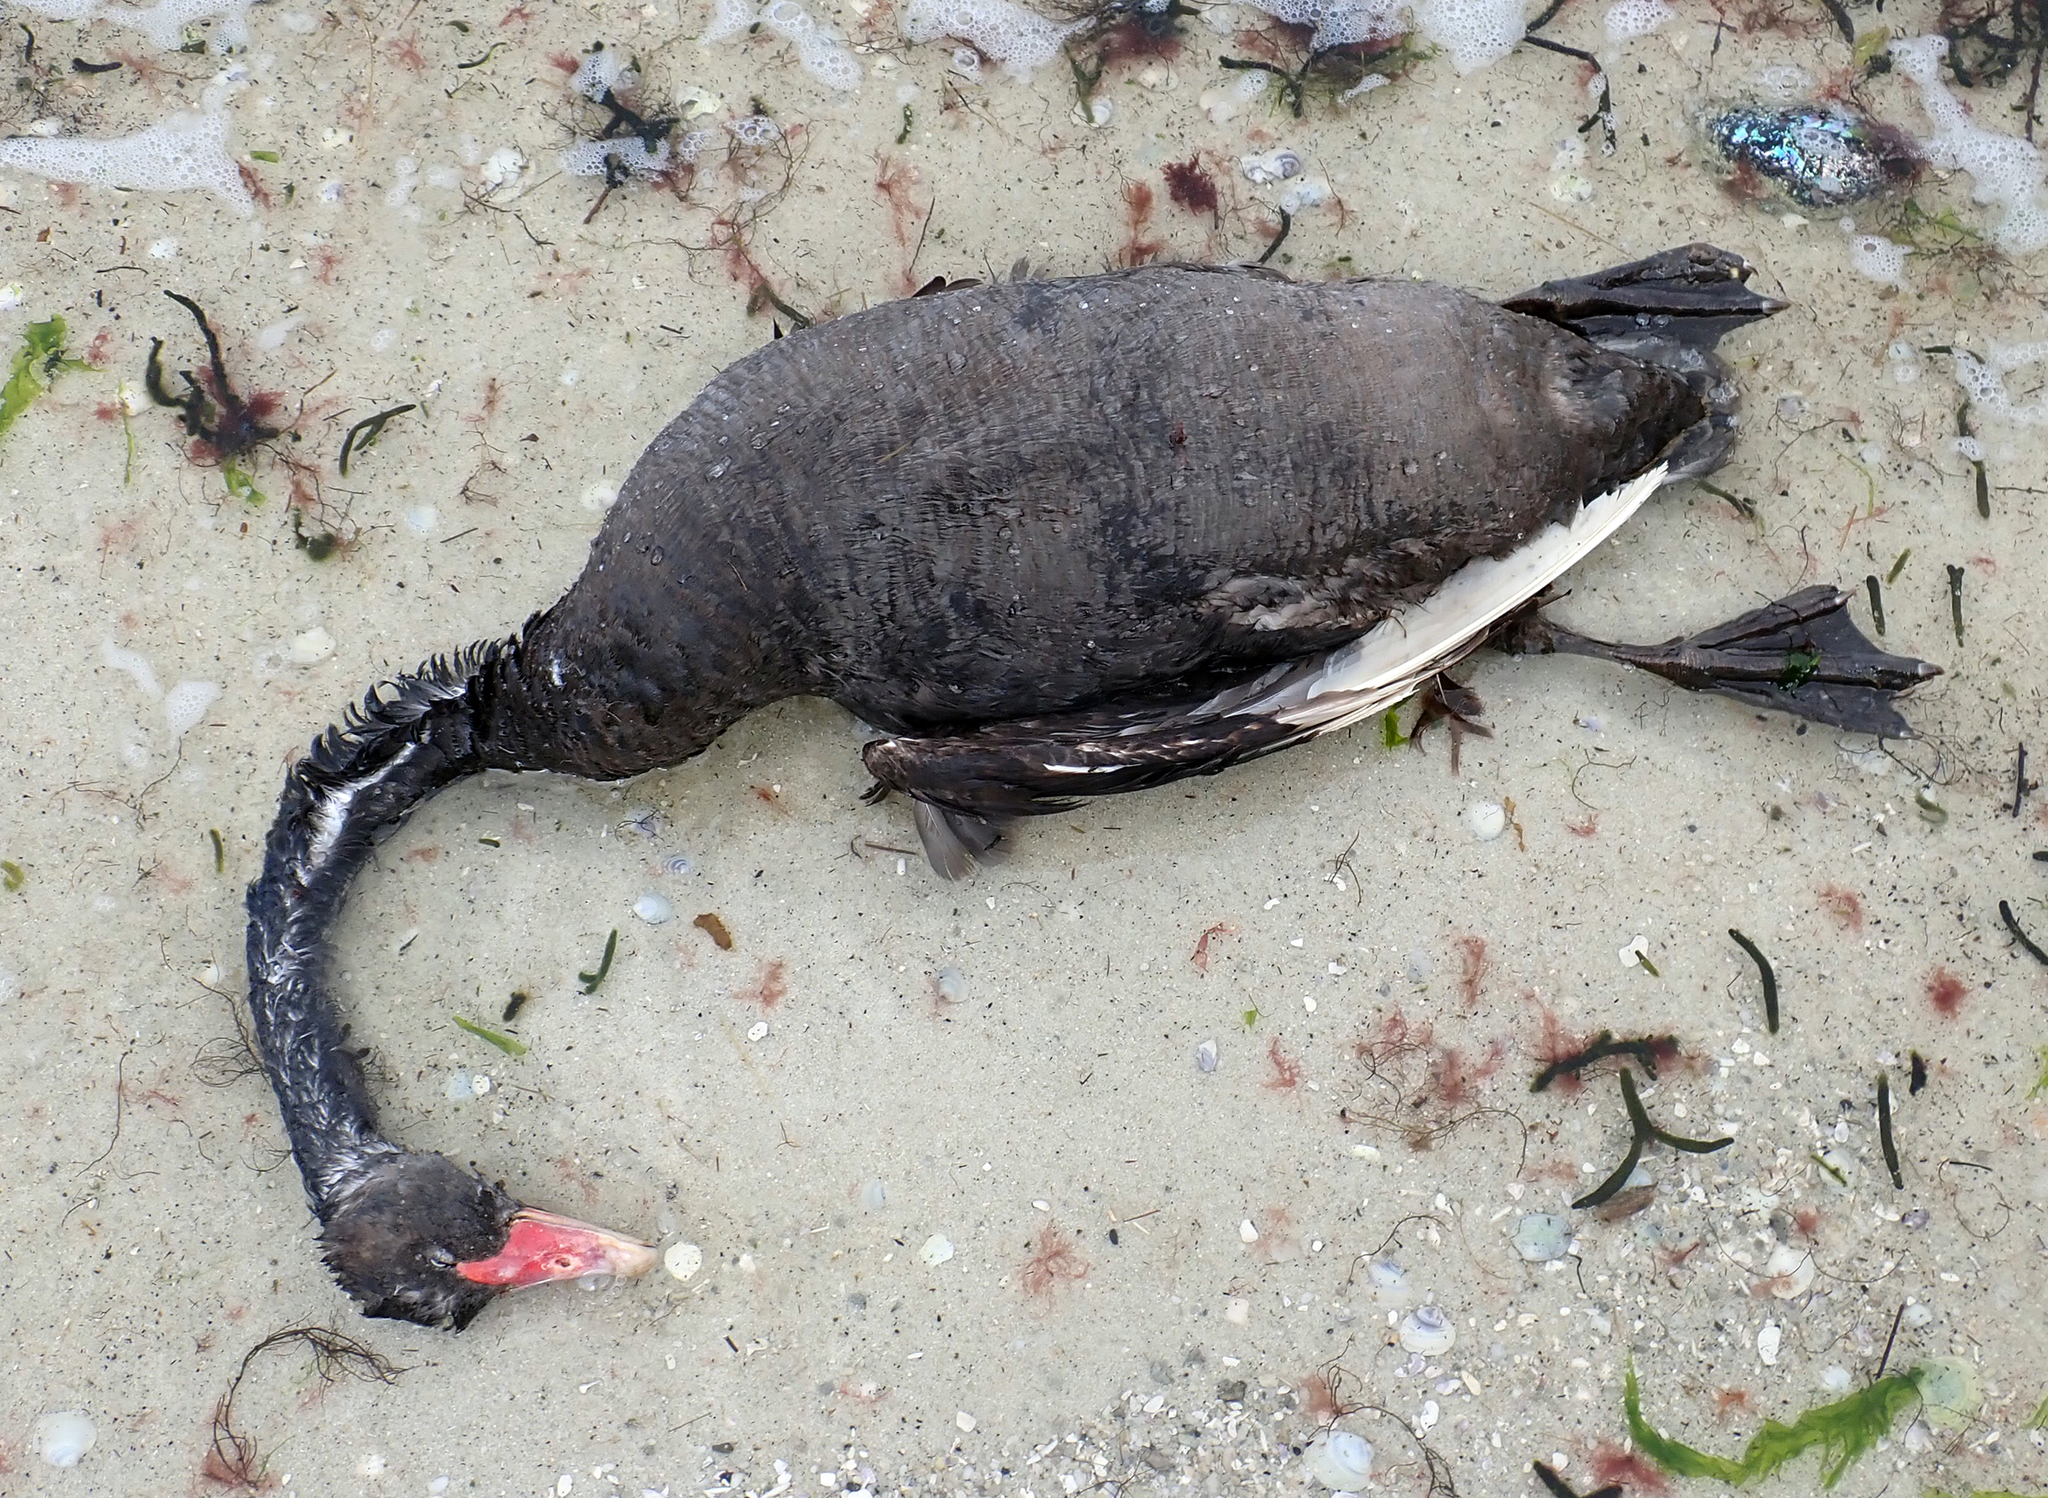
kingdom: Animalia
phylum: Chordata
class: Aves
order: Anseriformes
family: Anatidae
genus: Cygnus
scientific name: Cygnus atratus
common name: Black swan
